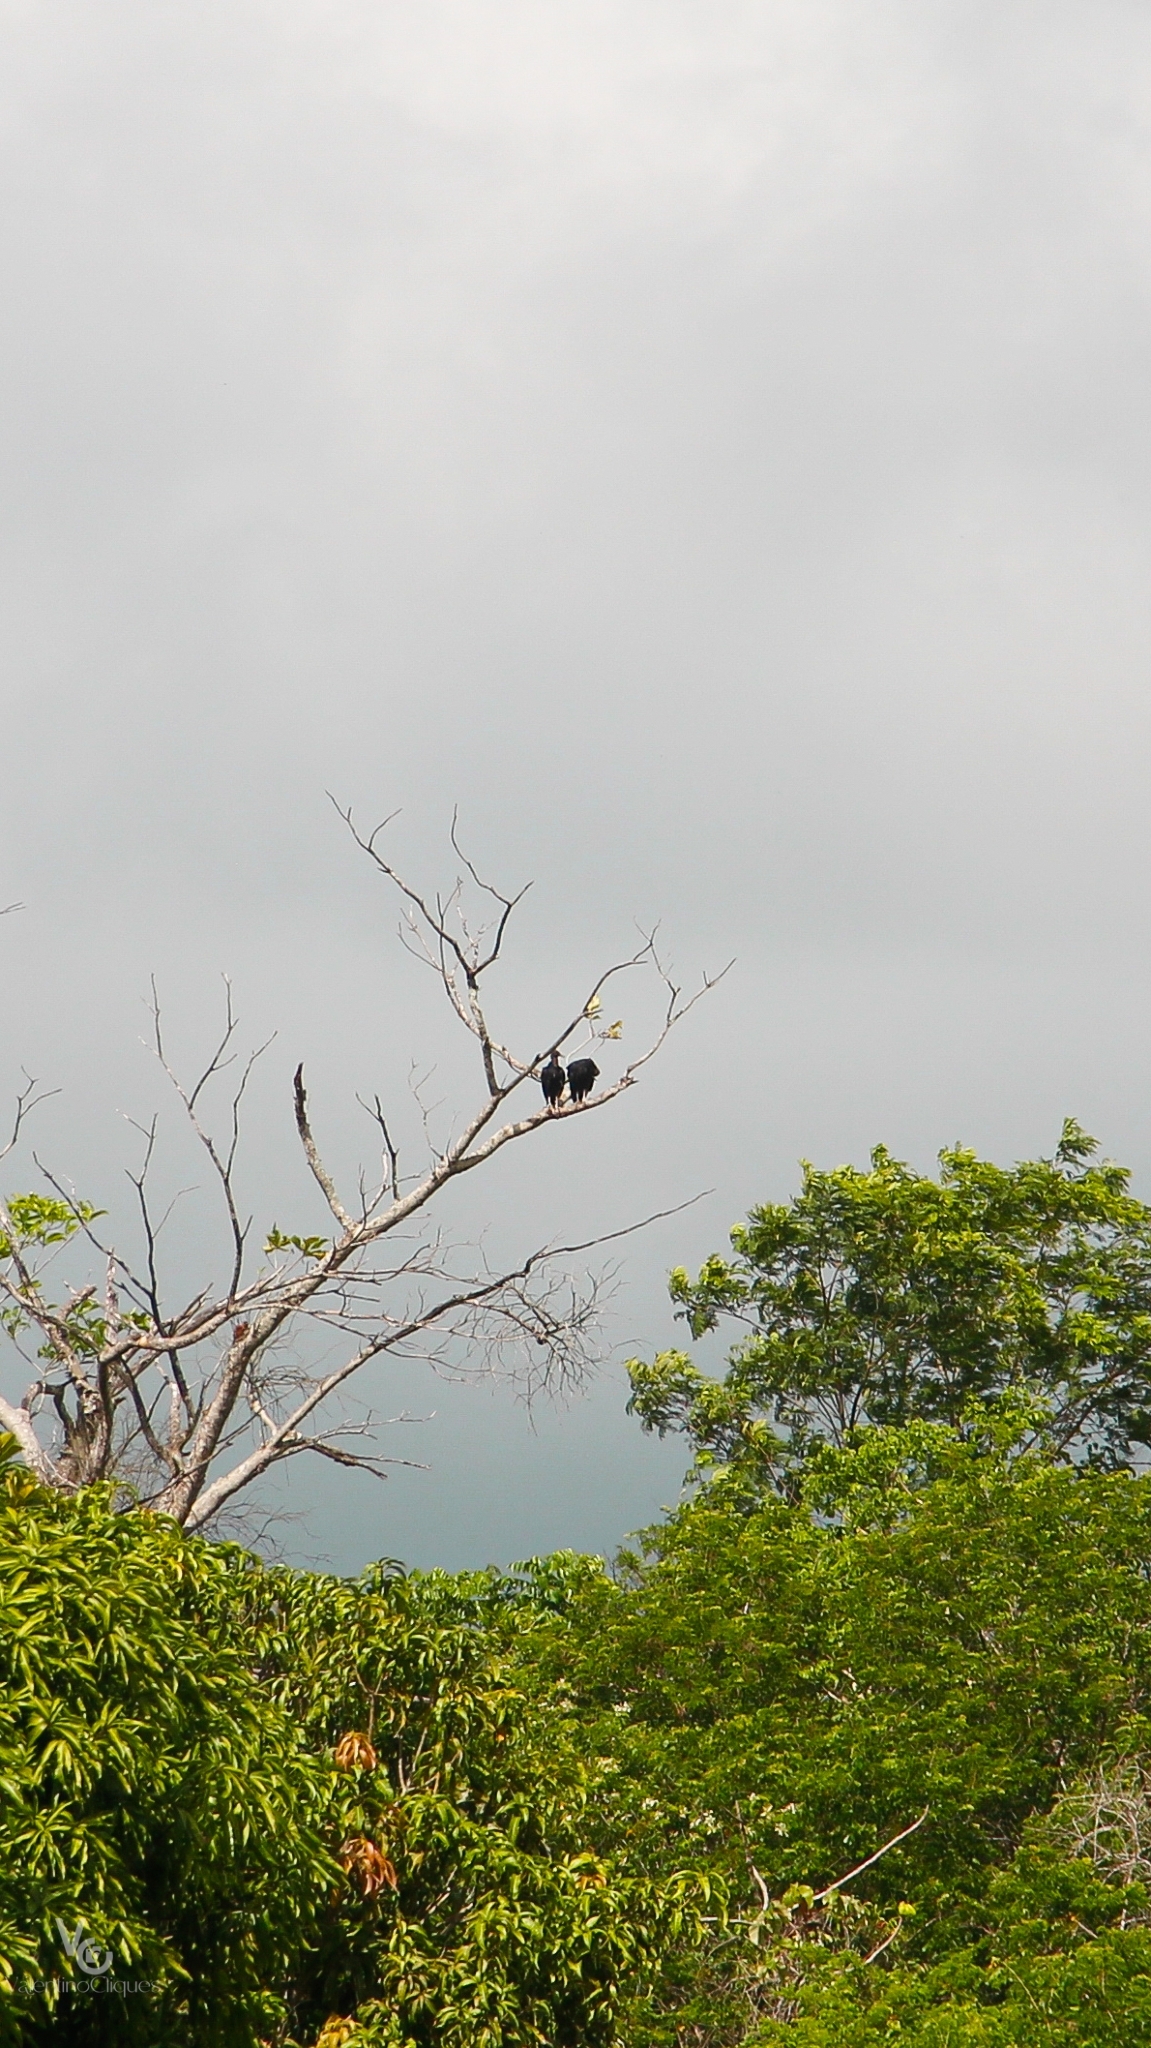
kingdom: Animalia
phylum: Chordata
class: Aves
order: Accipitriformes
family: Cathartidae
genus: Coragyps
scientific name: Coragyps atratus
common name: Black vulture
